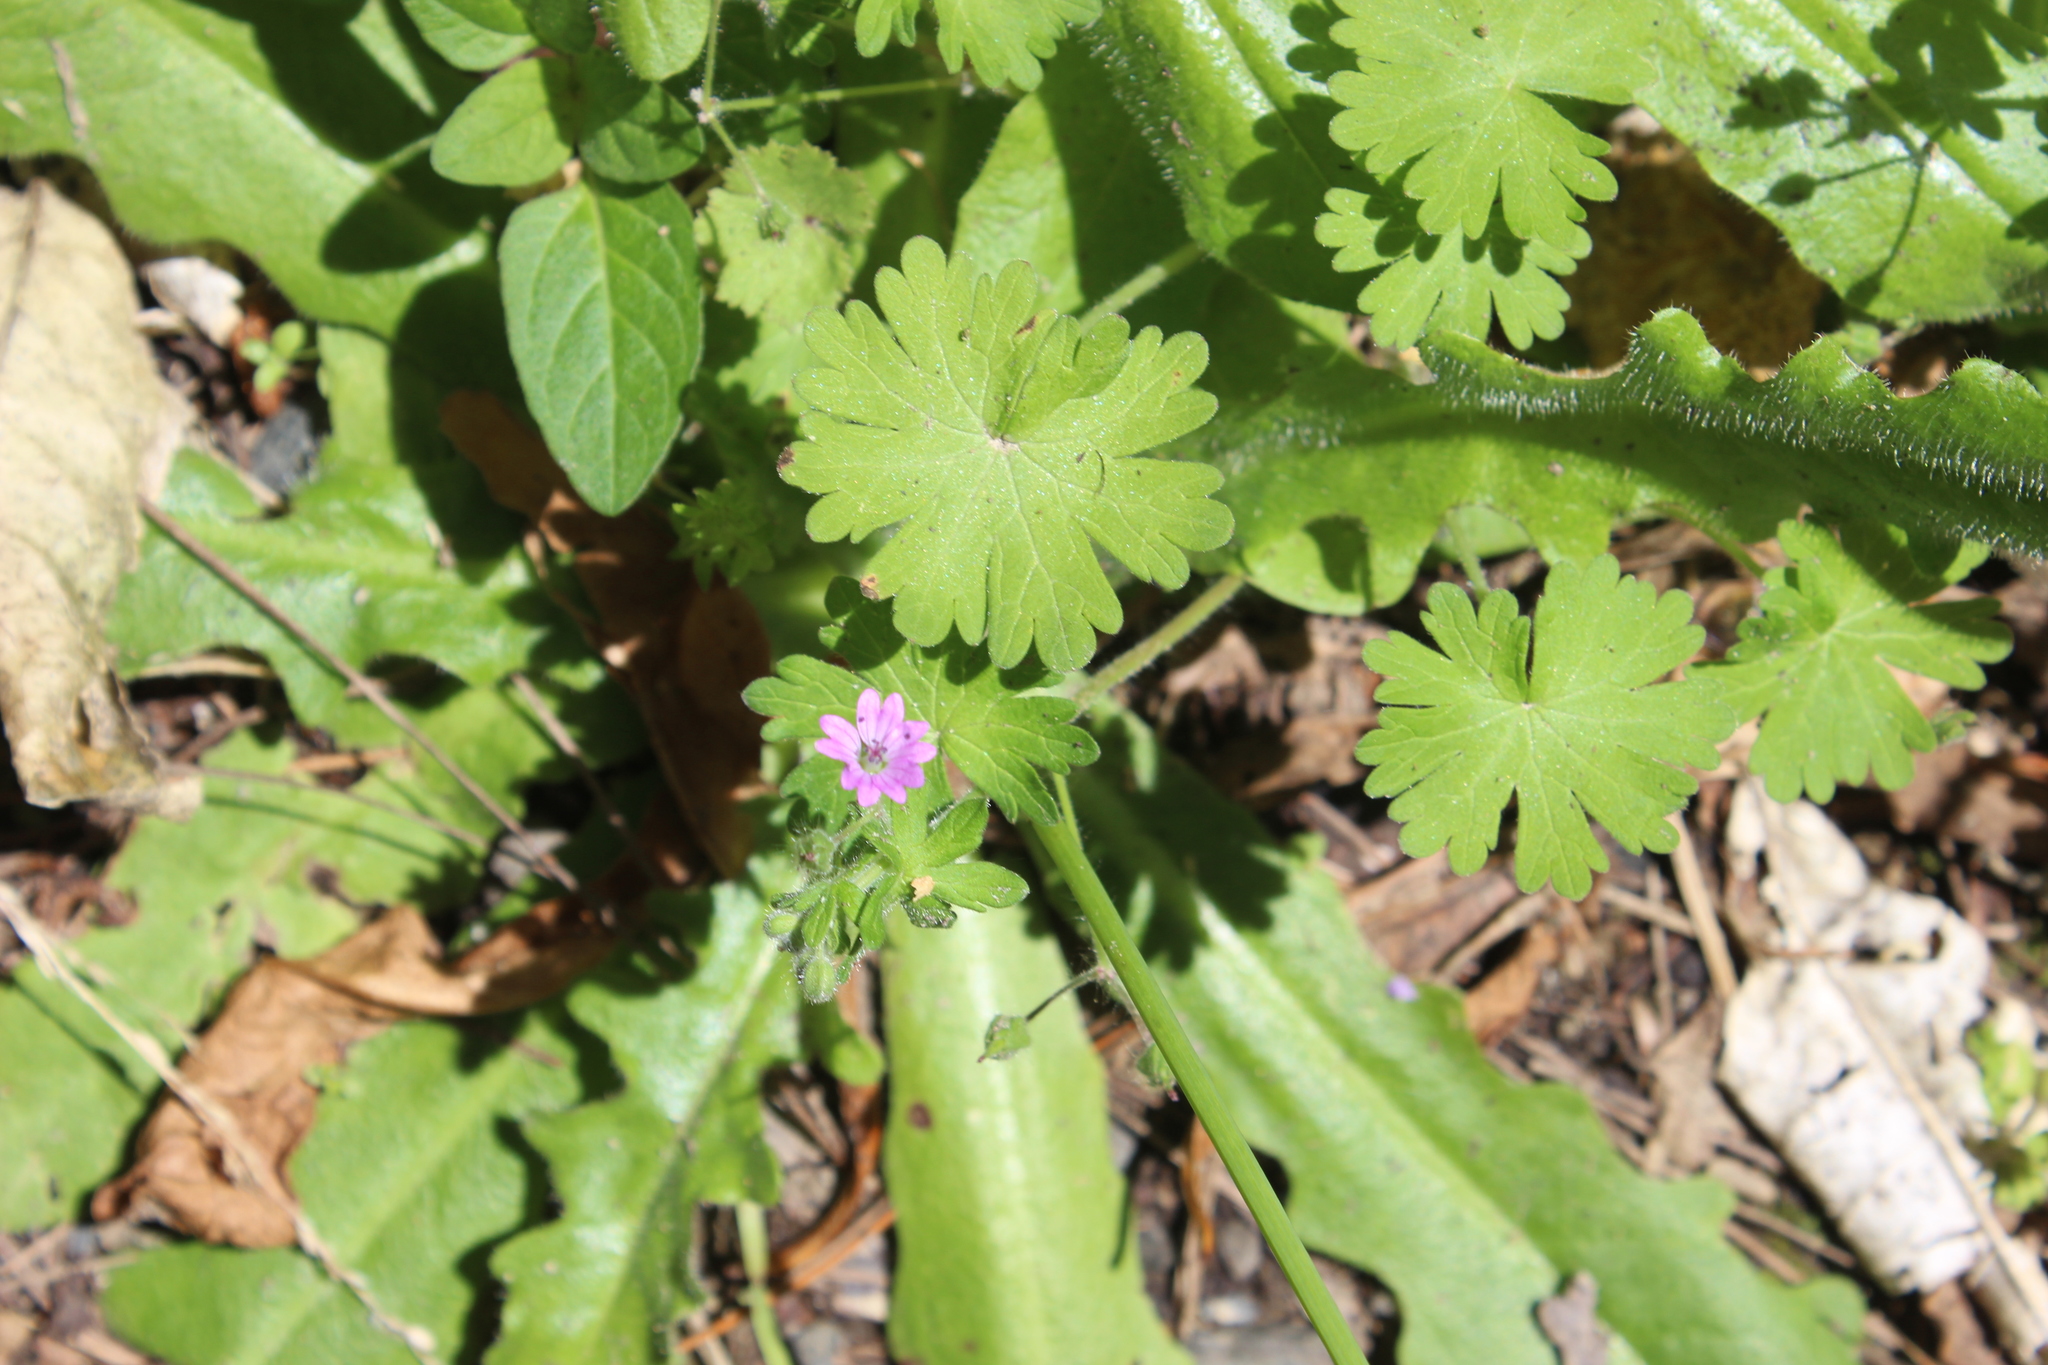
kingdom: Plantae
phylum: Tracheophyta
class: Magnoliopsida
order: Geraniales
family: Geraniaceae
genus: Geranium
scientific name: Geranium molle
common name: Dove's-foot crane's-bill
